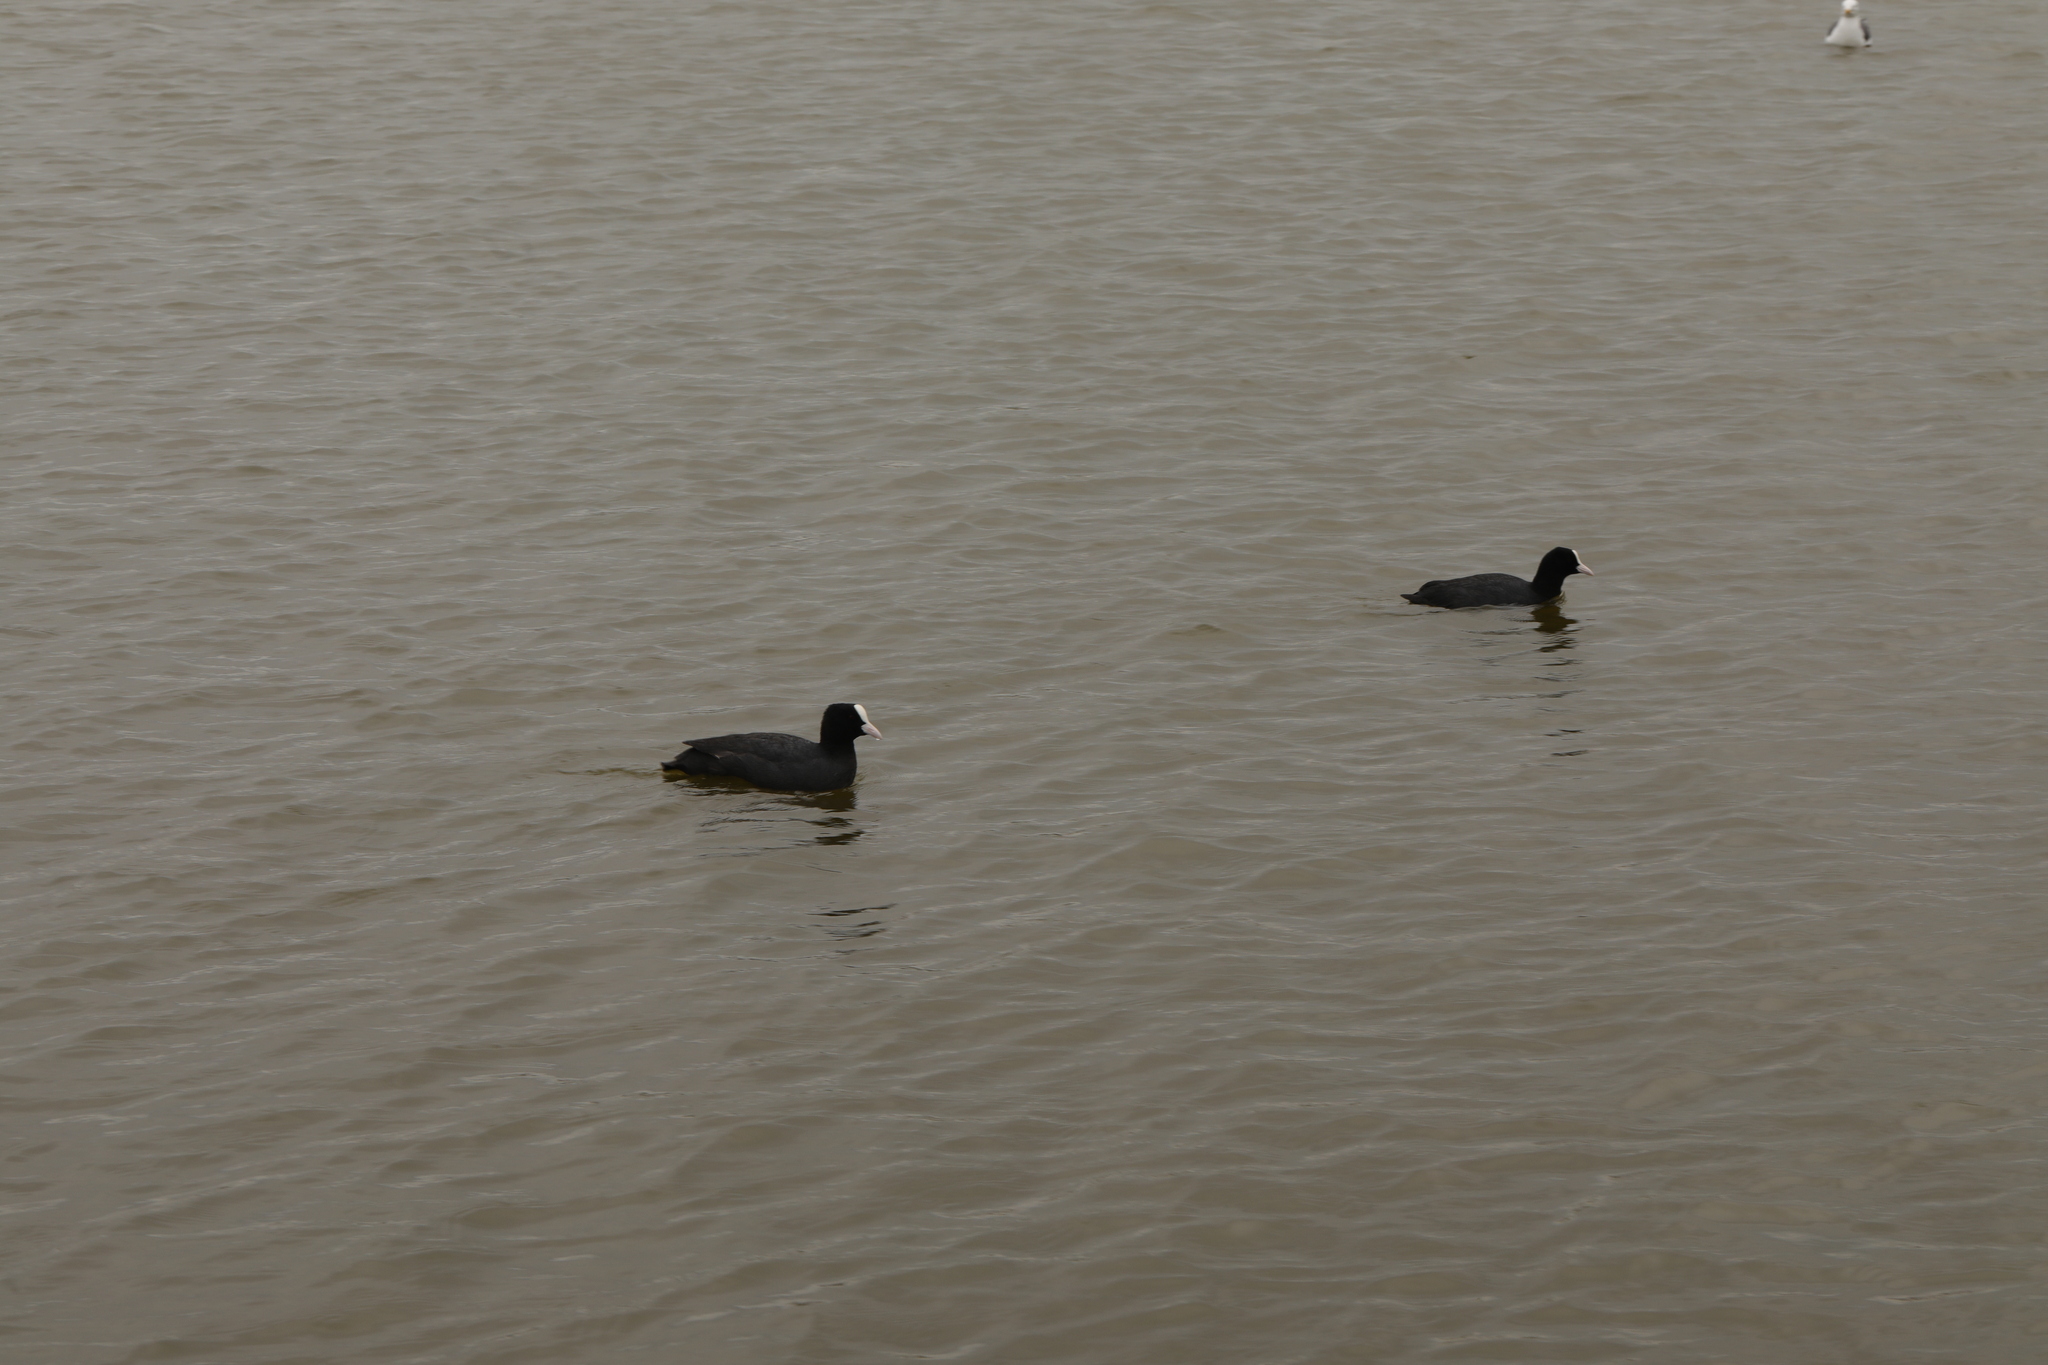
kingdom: Animalia
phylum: Chordata
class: Aves
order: Gruiformes
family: Rallidae
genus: Fulica
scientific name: Fulica atra
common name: Eurasian coot
